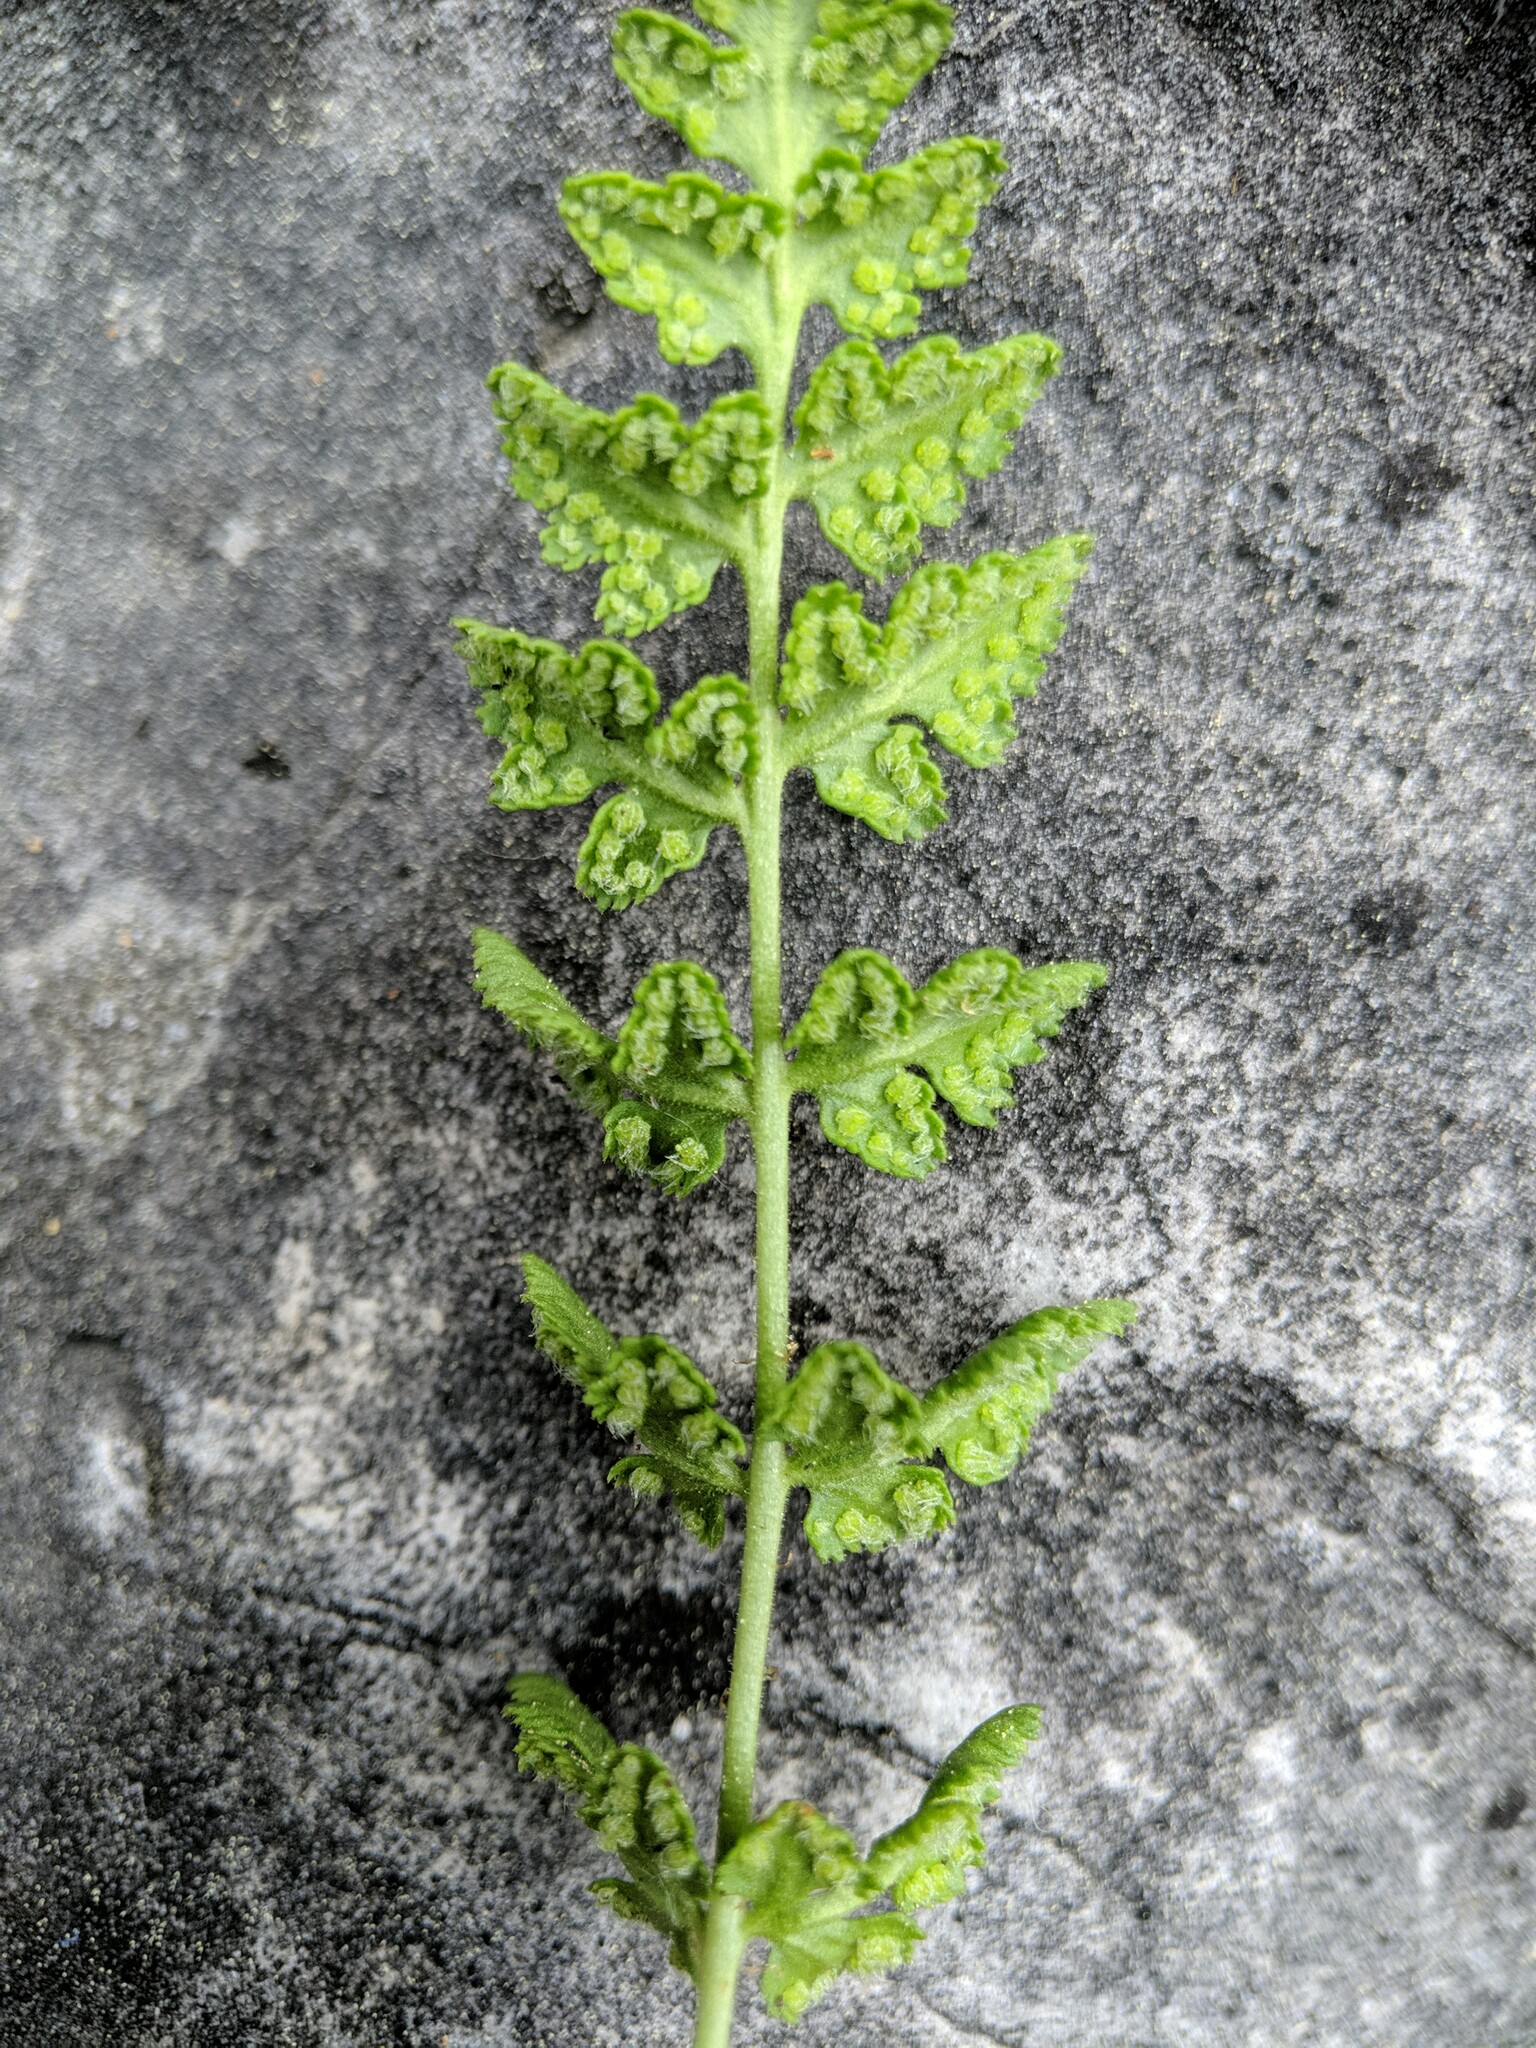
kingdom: Plantae
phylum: Tracheophyta
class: Polypodiopsida
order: Polypodiales
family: Woodsiaceae
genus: Physematium
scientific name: Physematium oreganum
